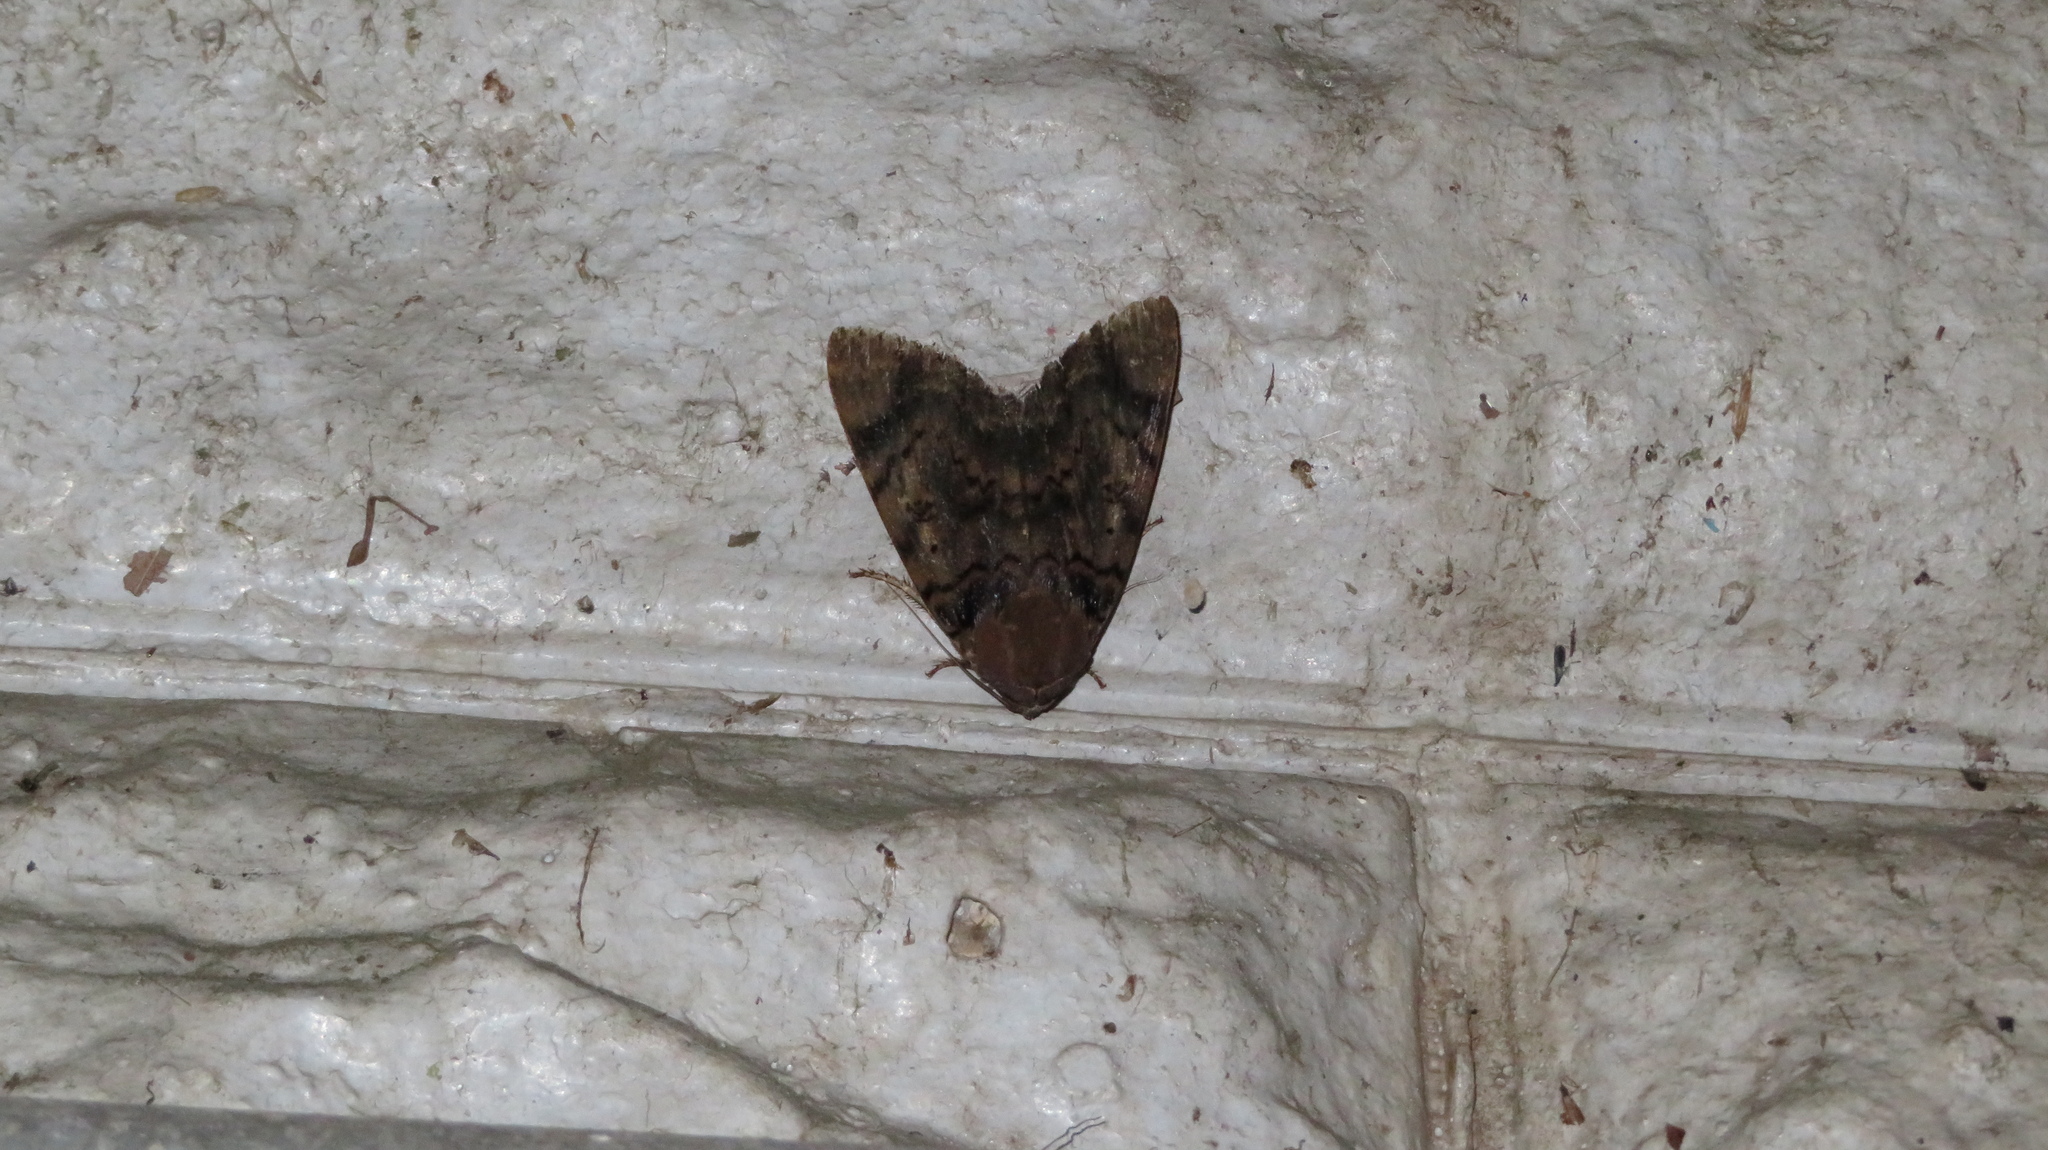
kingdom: Animalia
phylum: Arthropoda
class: Insecta
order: Lepidoptera
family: Erebidae
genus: Arcte
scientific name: Arcte coerula
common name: Ramie moth
